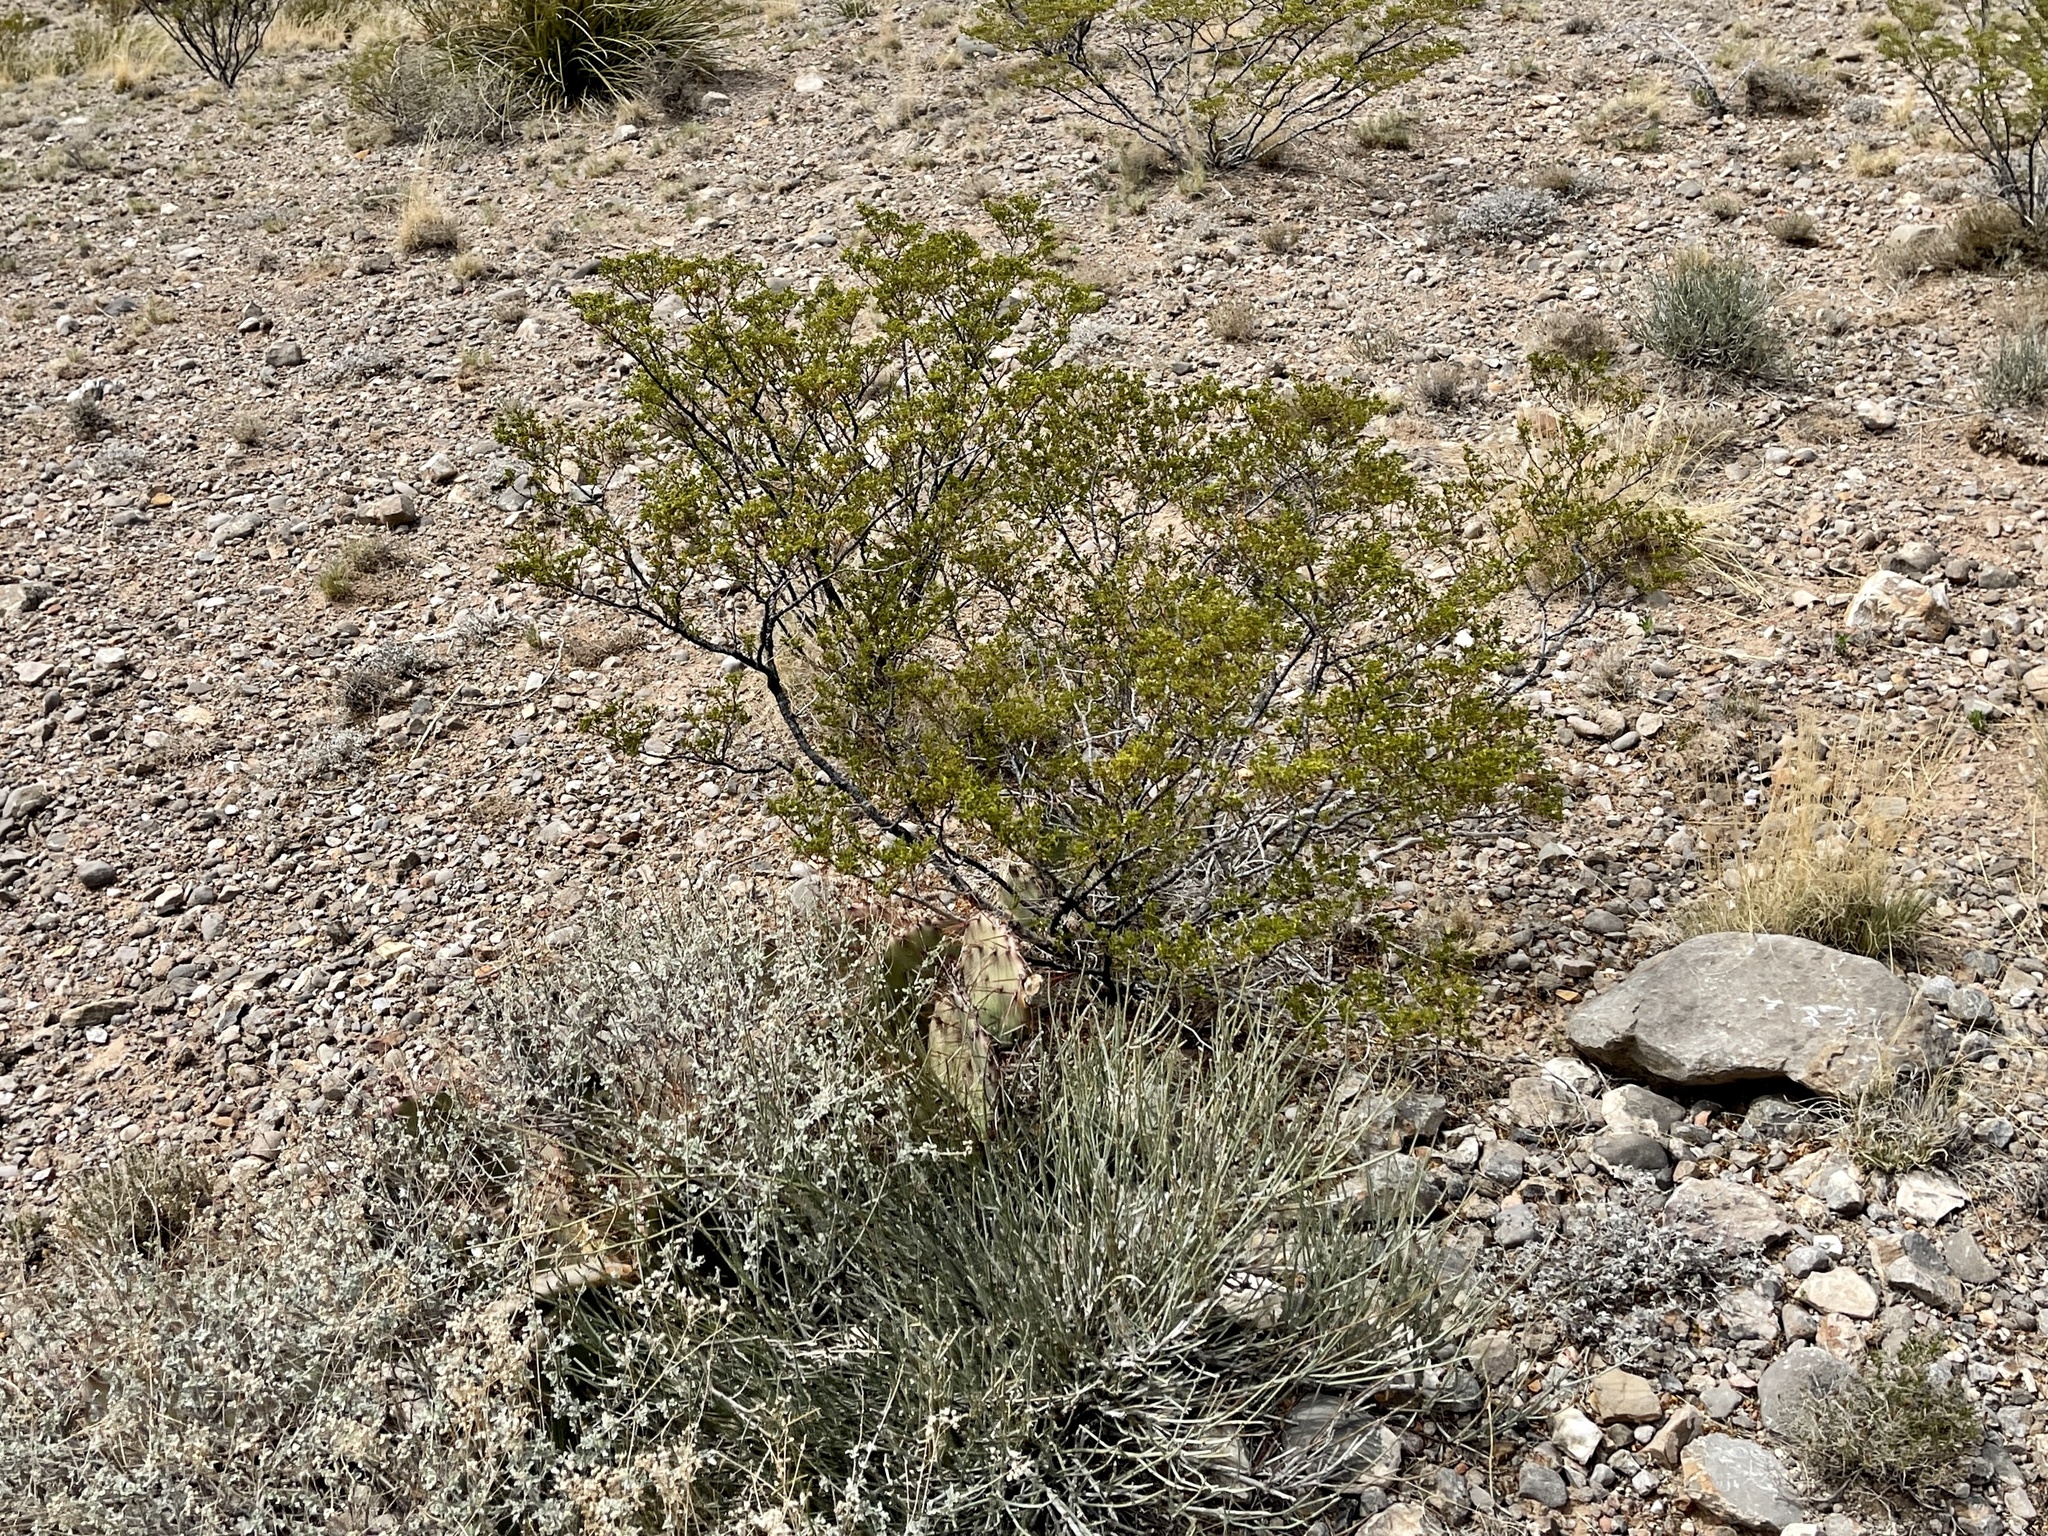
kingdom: Plantae
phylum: Tracheophyta
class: Magnoliopsida
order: Zygophyllales
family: Zygophyllaceae
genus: Larrea
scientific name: Larrea tridentata
